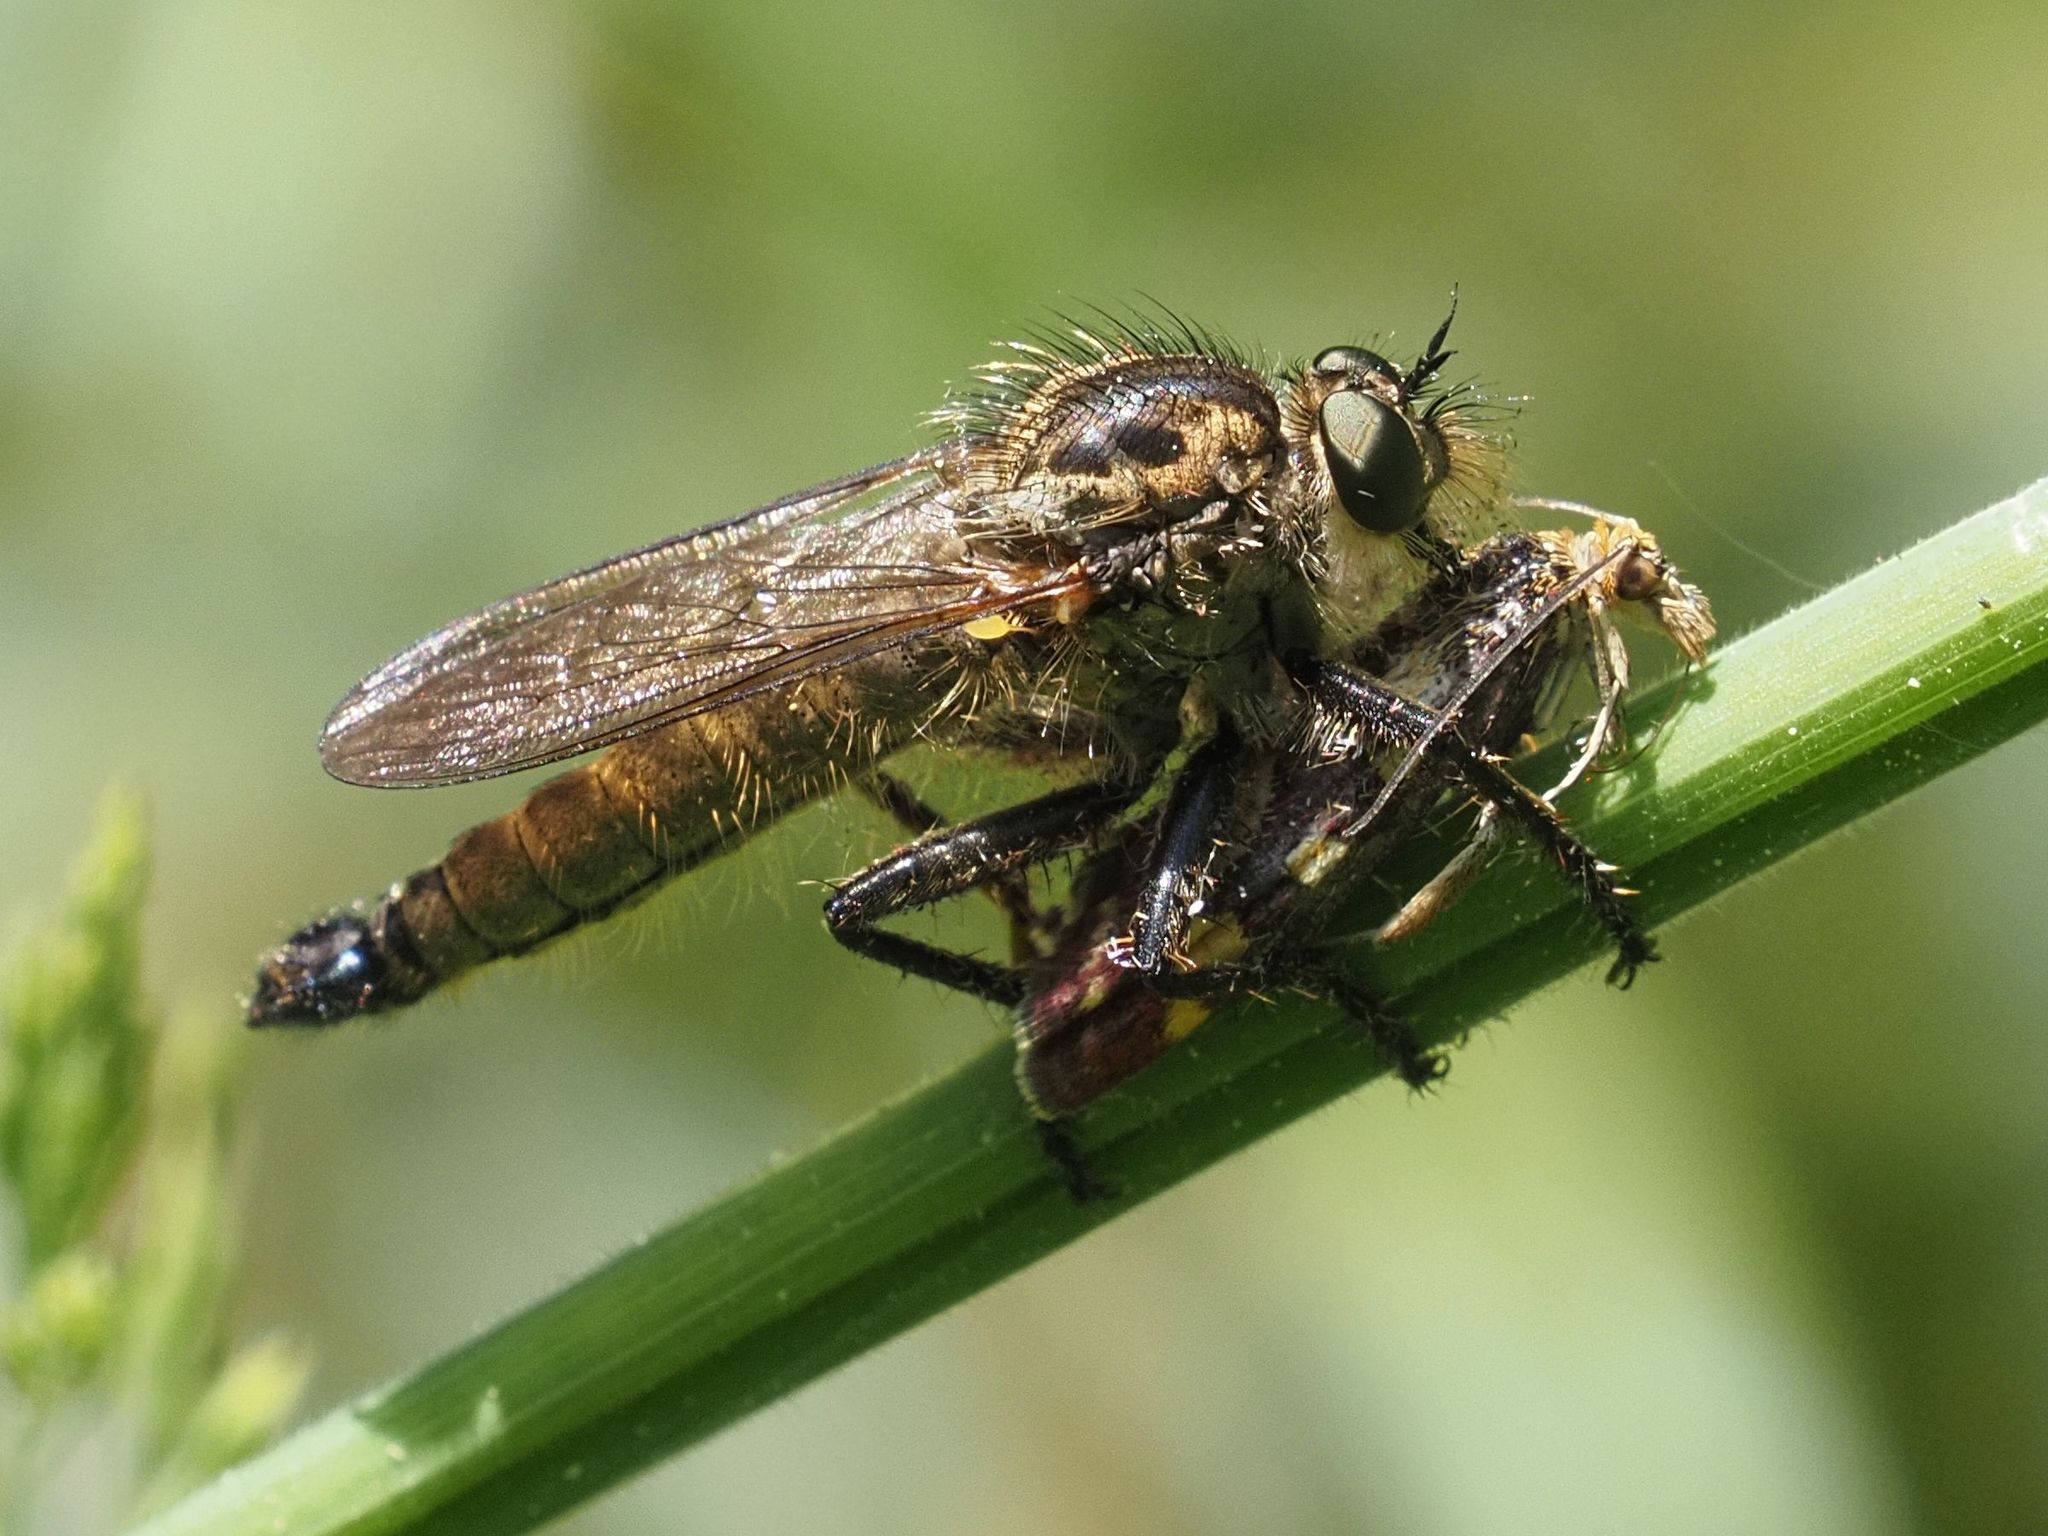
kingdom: Animalia
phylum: Arthropoda
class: Insecta
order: Diptera
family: Asilidae
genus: Dysmachus
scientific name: Dysmachus fuscipennis
